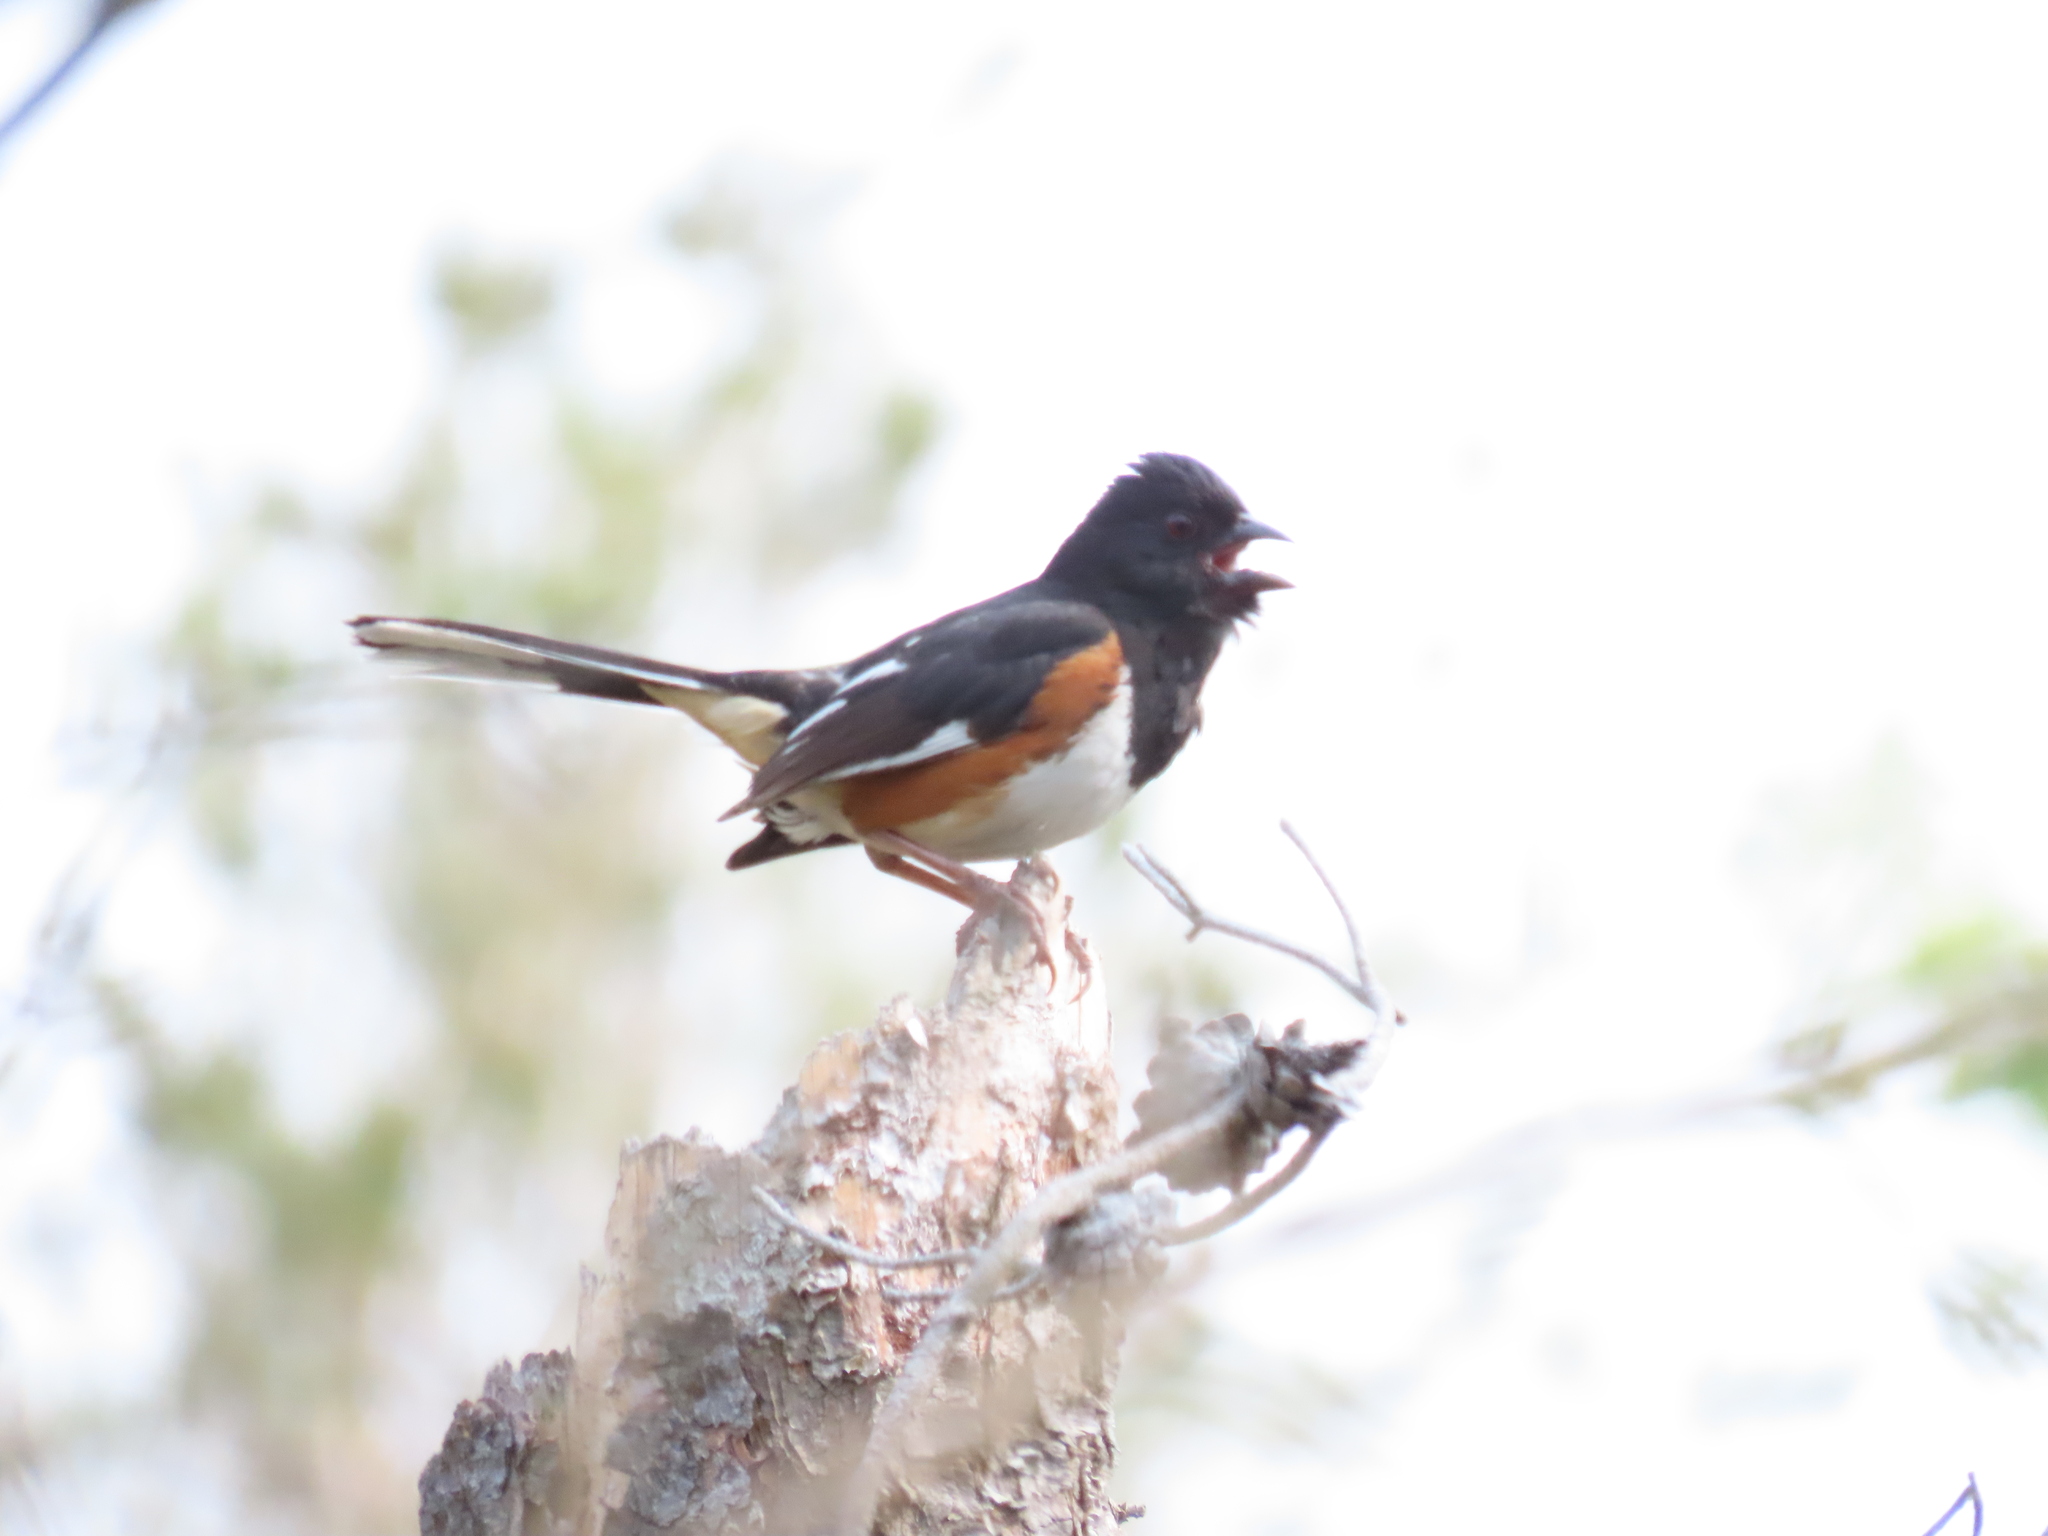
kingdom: Animalia
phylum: Chordata
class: Aves
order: Passeriformes
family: Passerellidae
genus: Pipilo
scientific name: Pipilo erythrophthalmus
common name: Eastern towhee
